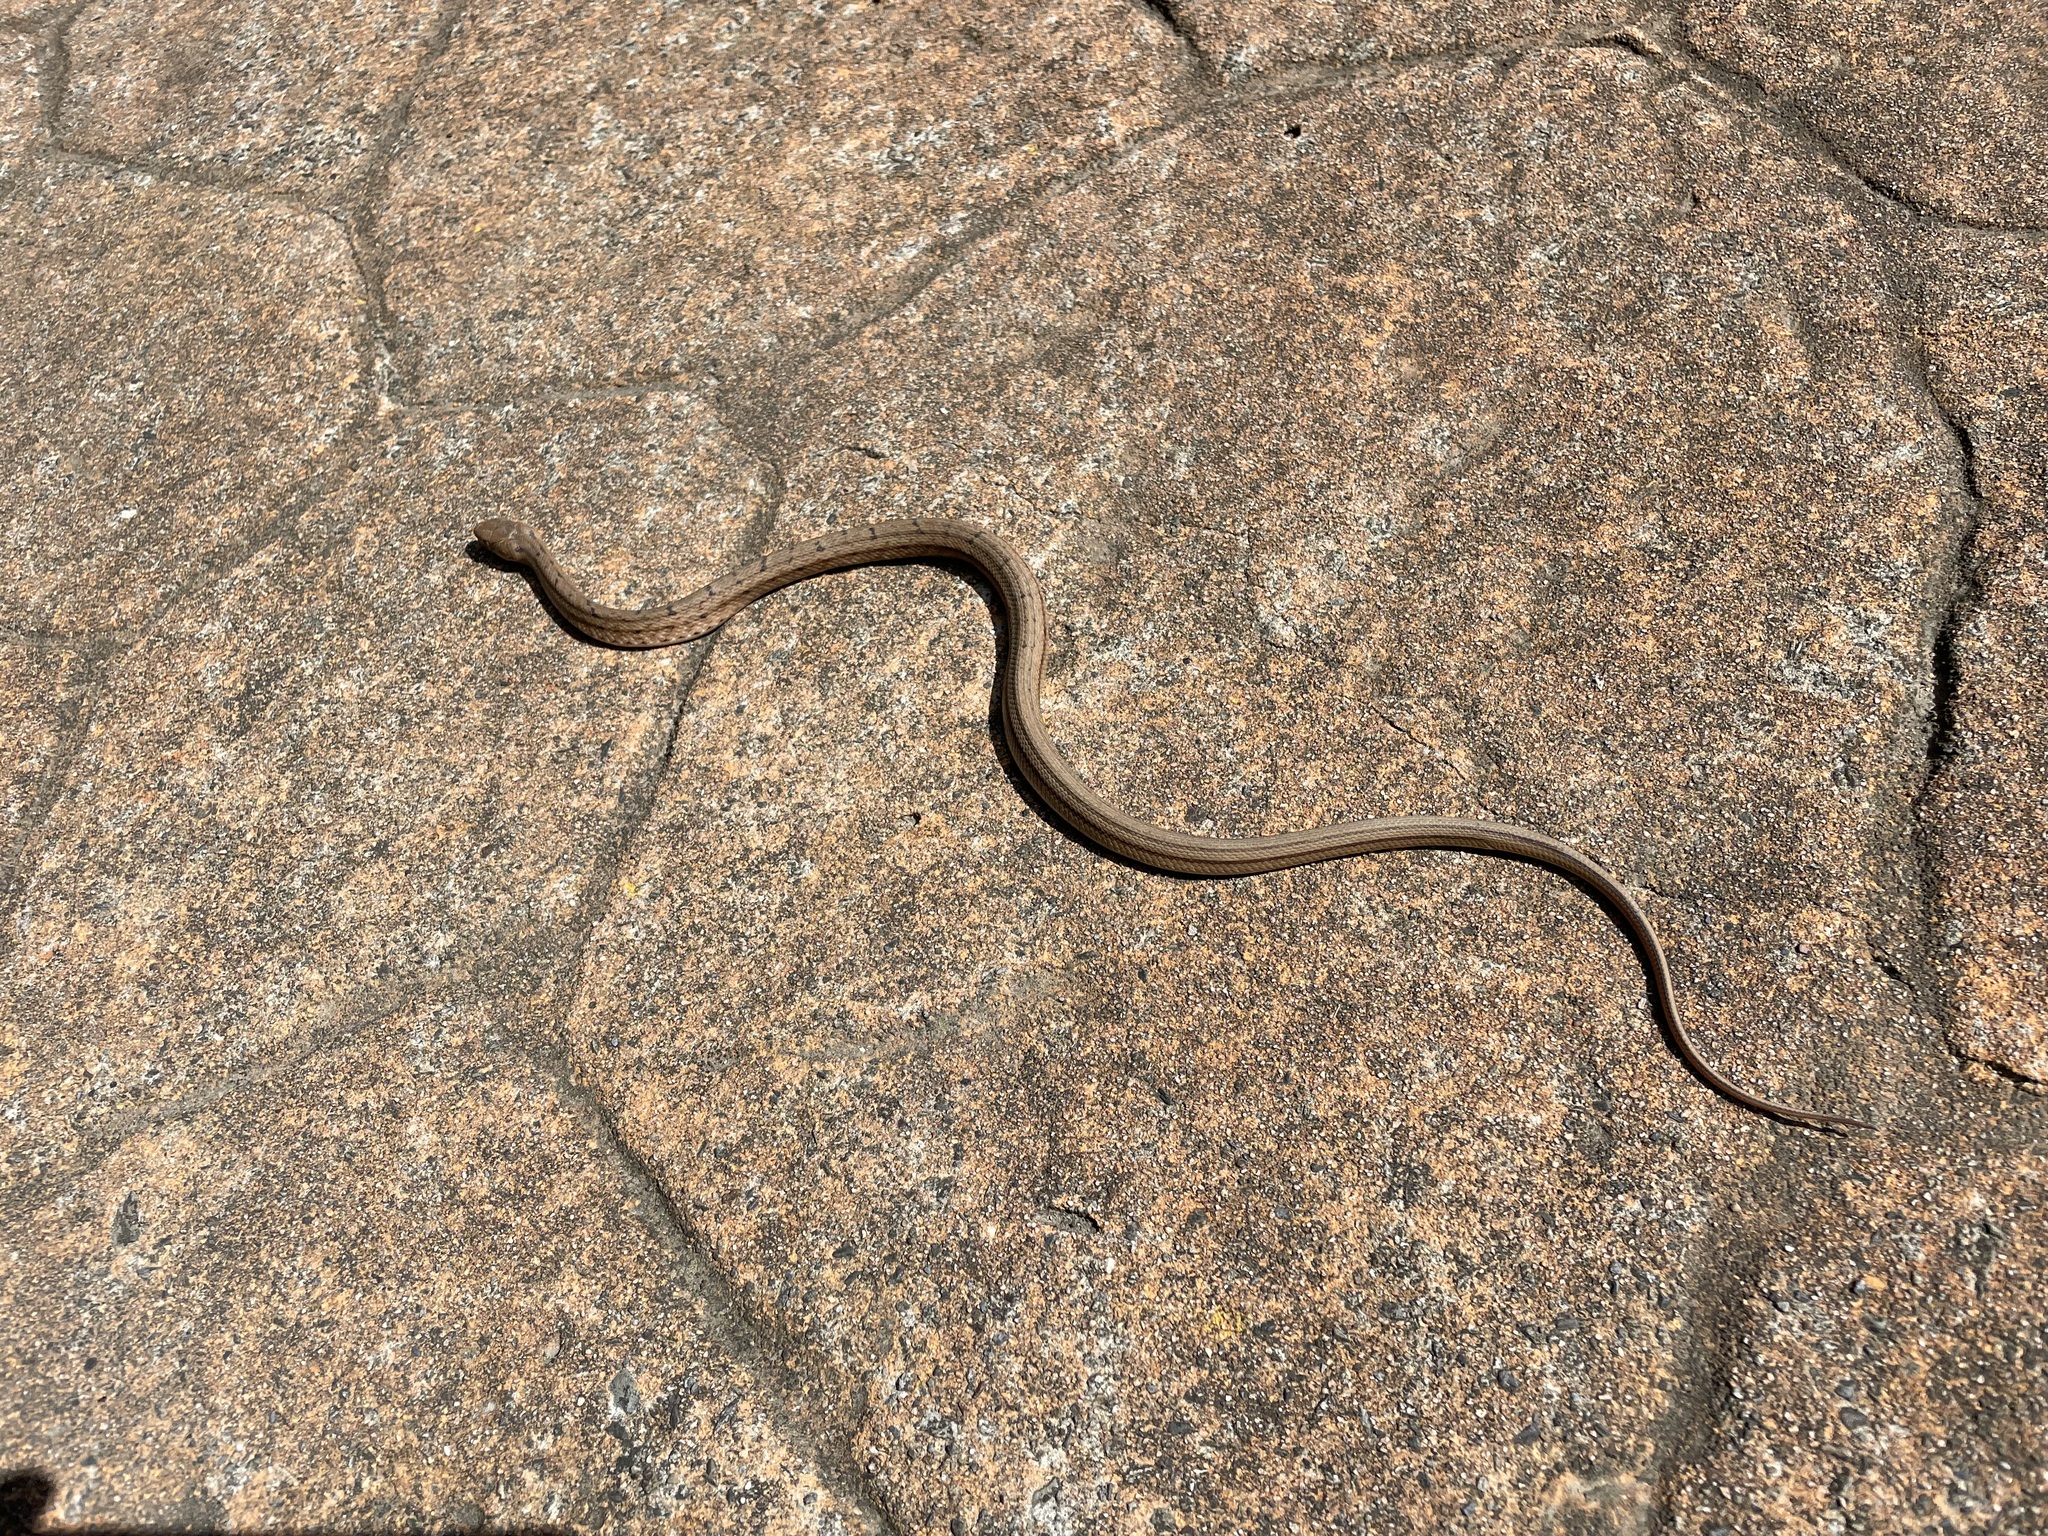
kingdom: Animalia
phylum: Chordata
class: Squamata
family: Colubridae
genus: Elaphe
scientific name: Elaphe carinata
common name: Taiwan stink snake
